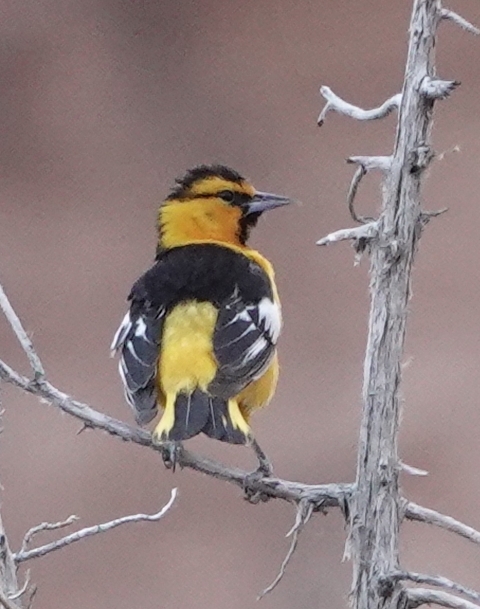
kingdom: Animalia
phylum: Chordata
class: Aves
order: Passeriformes
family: Icteridae
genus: Icterus
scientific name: Icterus bullockii
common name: Bullock's oriole
